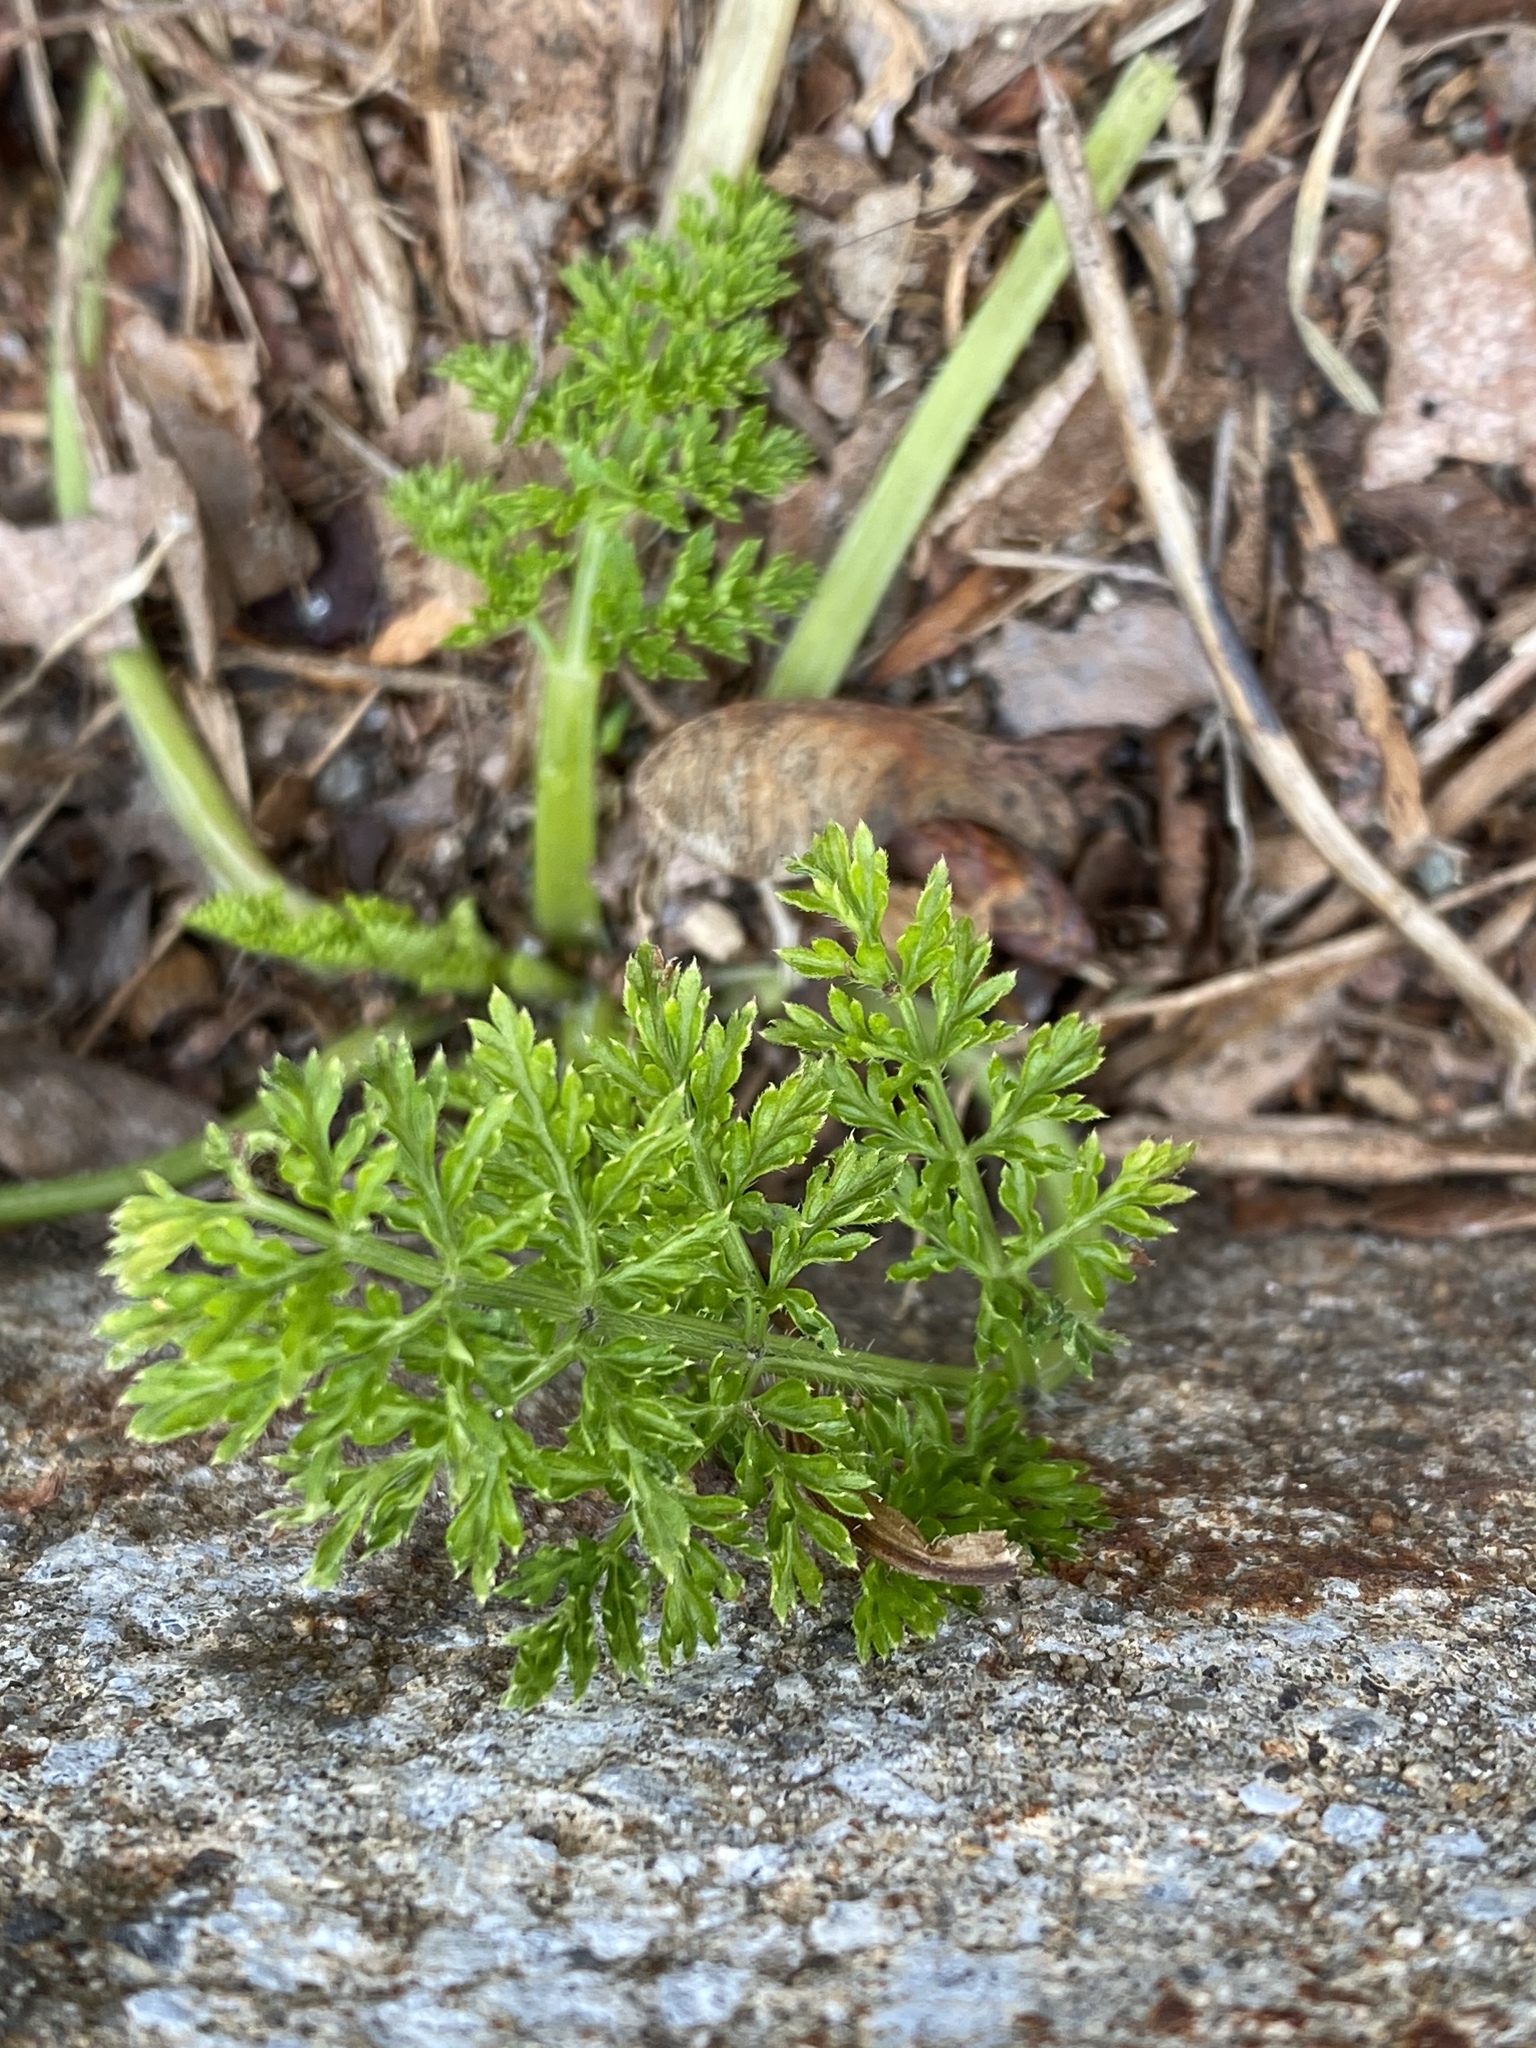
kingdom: Plantae
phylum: Tracheophyta
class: Magnoliopsida
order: Apiales
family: Apiaceae
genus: Anthriscus
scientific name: Anthriscus sylvestris
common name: Cow parsley
